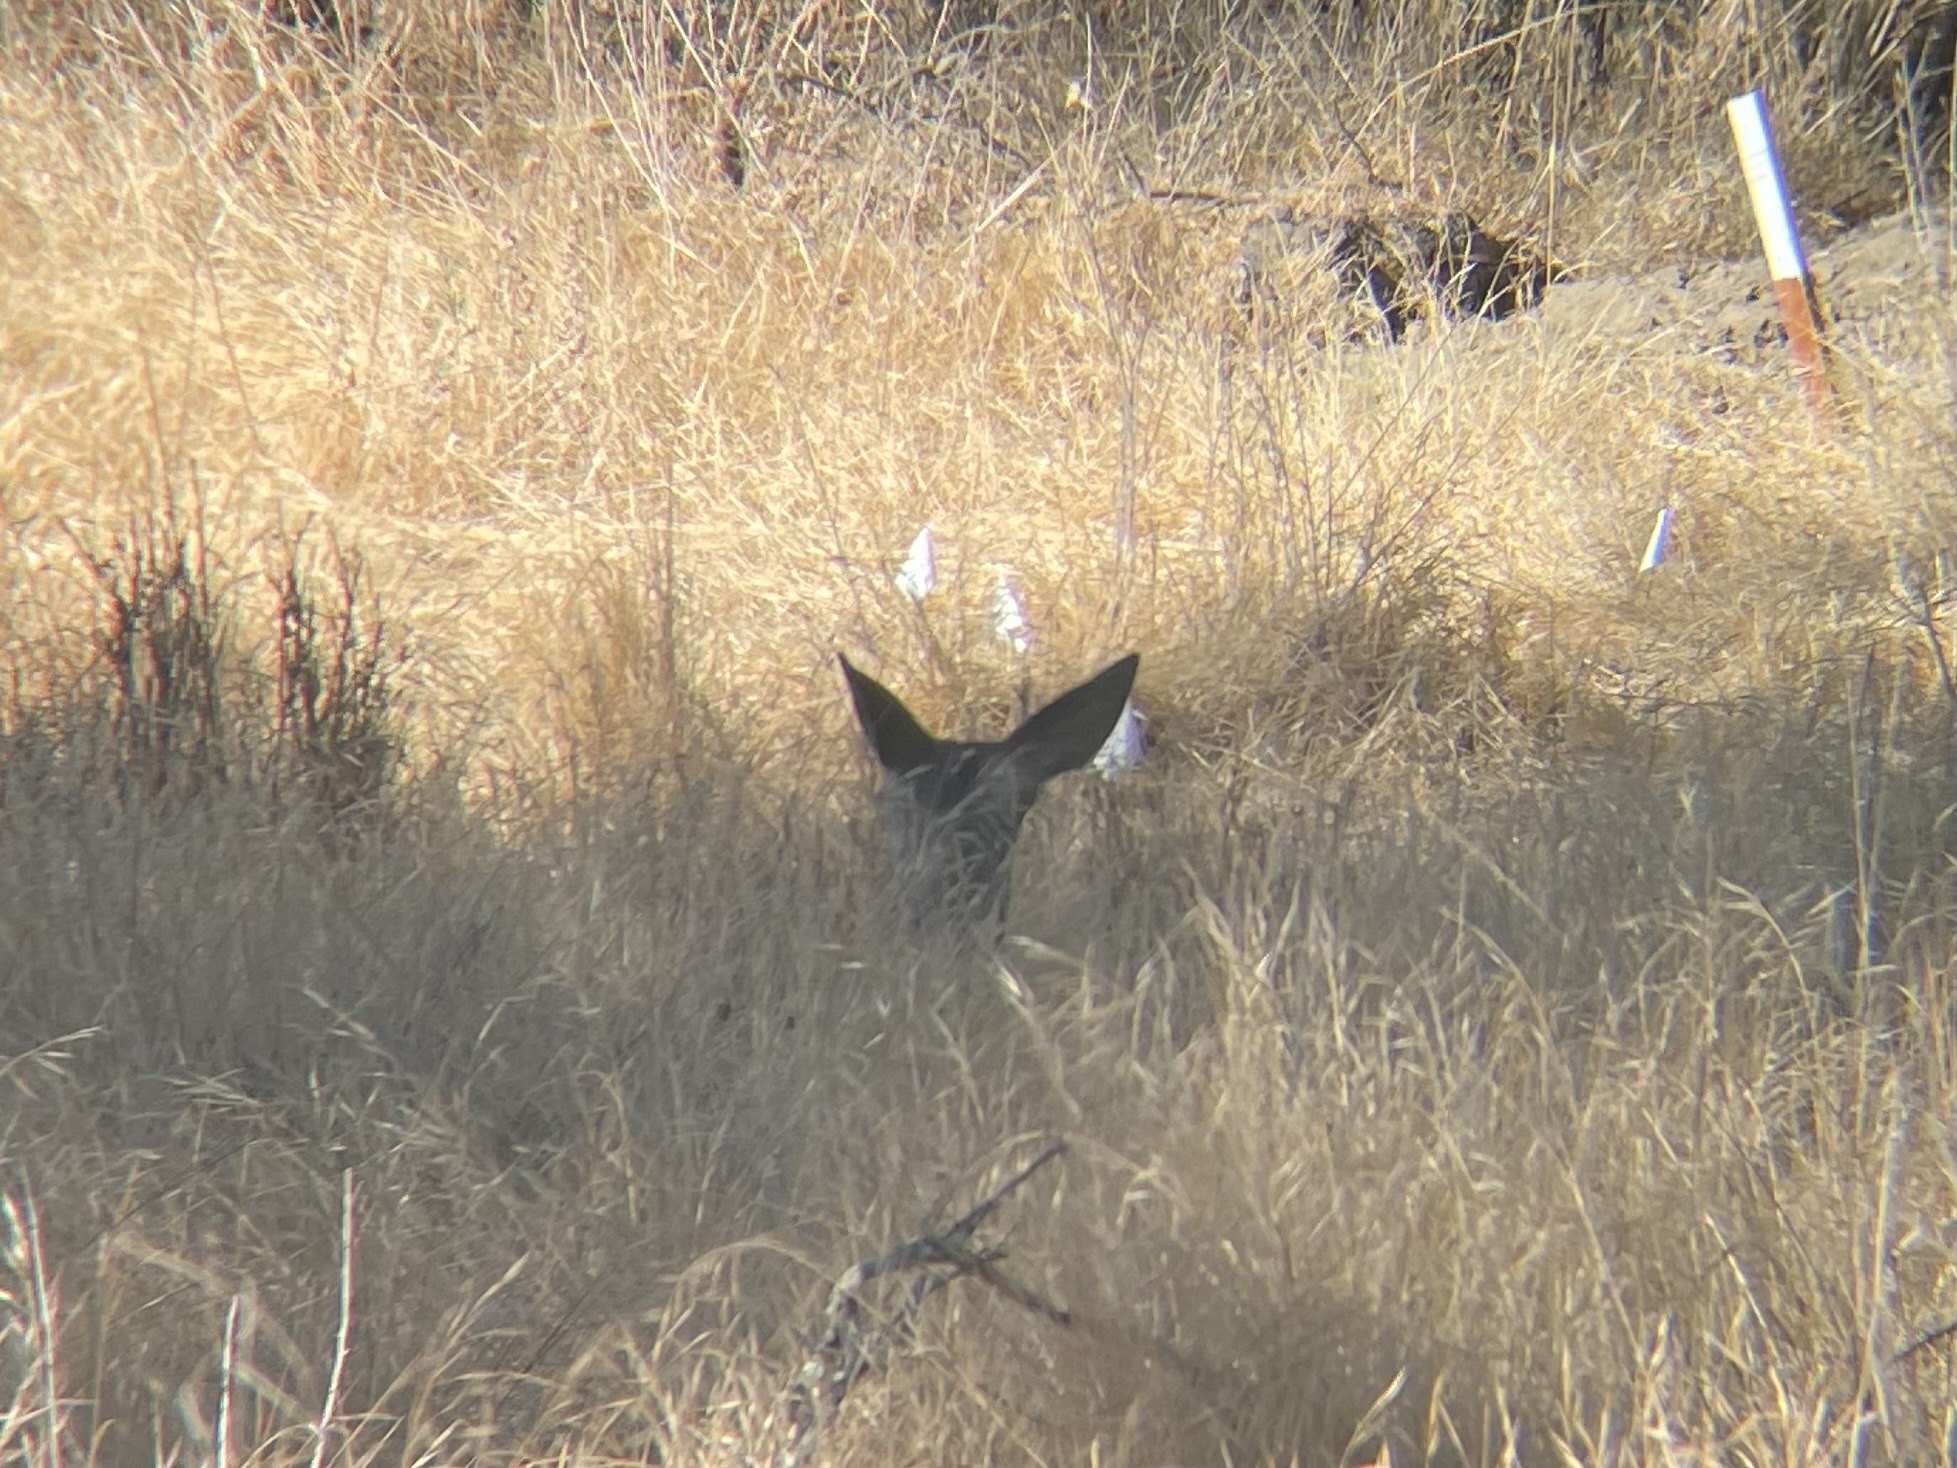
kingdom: Animalia
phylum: Chordata
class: Mammalia
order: Artiodactyla
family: Cervidae
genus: Odocoileus
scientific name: Odocoileus hemionus
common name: Mule deer
